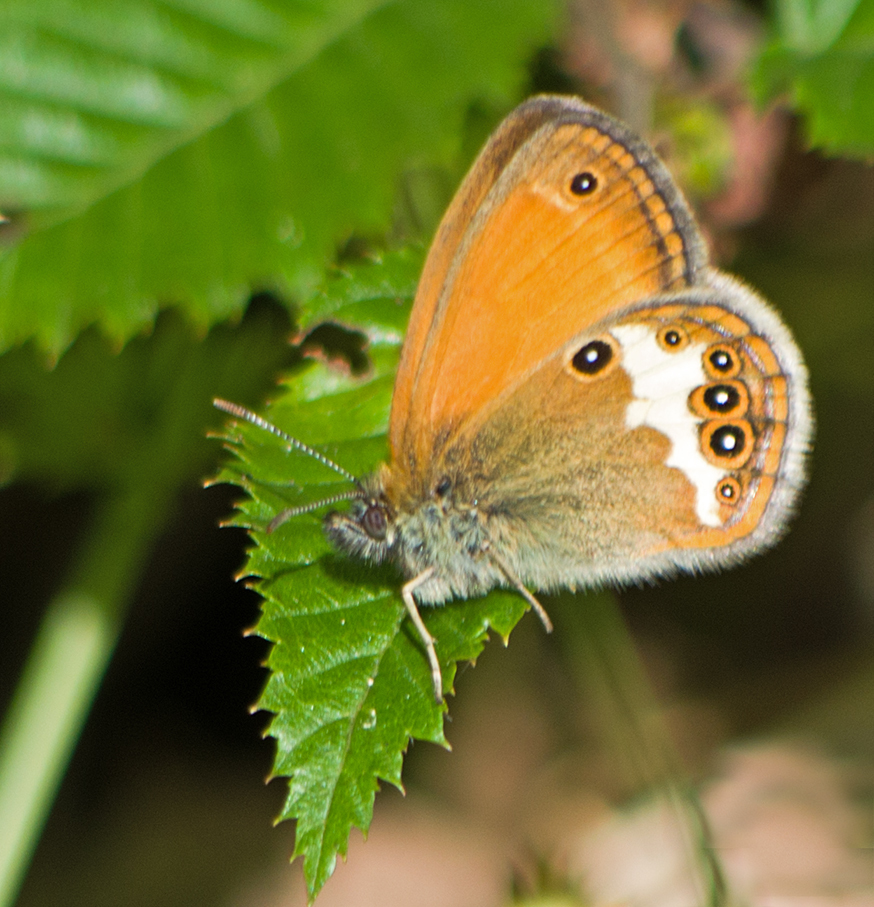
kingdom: Animalia
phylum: Arthropoda
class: Insecta
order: Lepidoptera
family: Nymphalidae
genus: Coenonympha
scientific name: Coenonympha arcania
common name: Pearly heath
